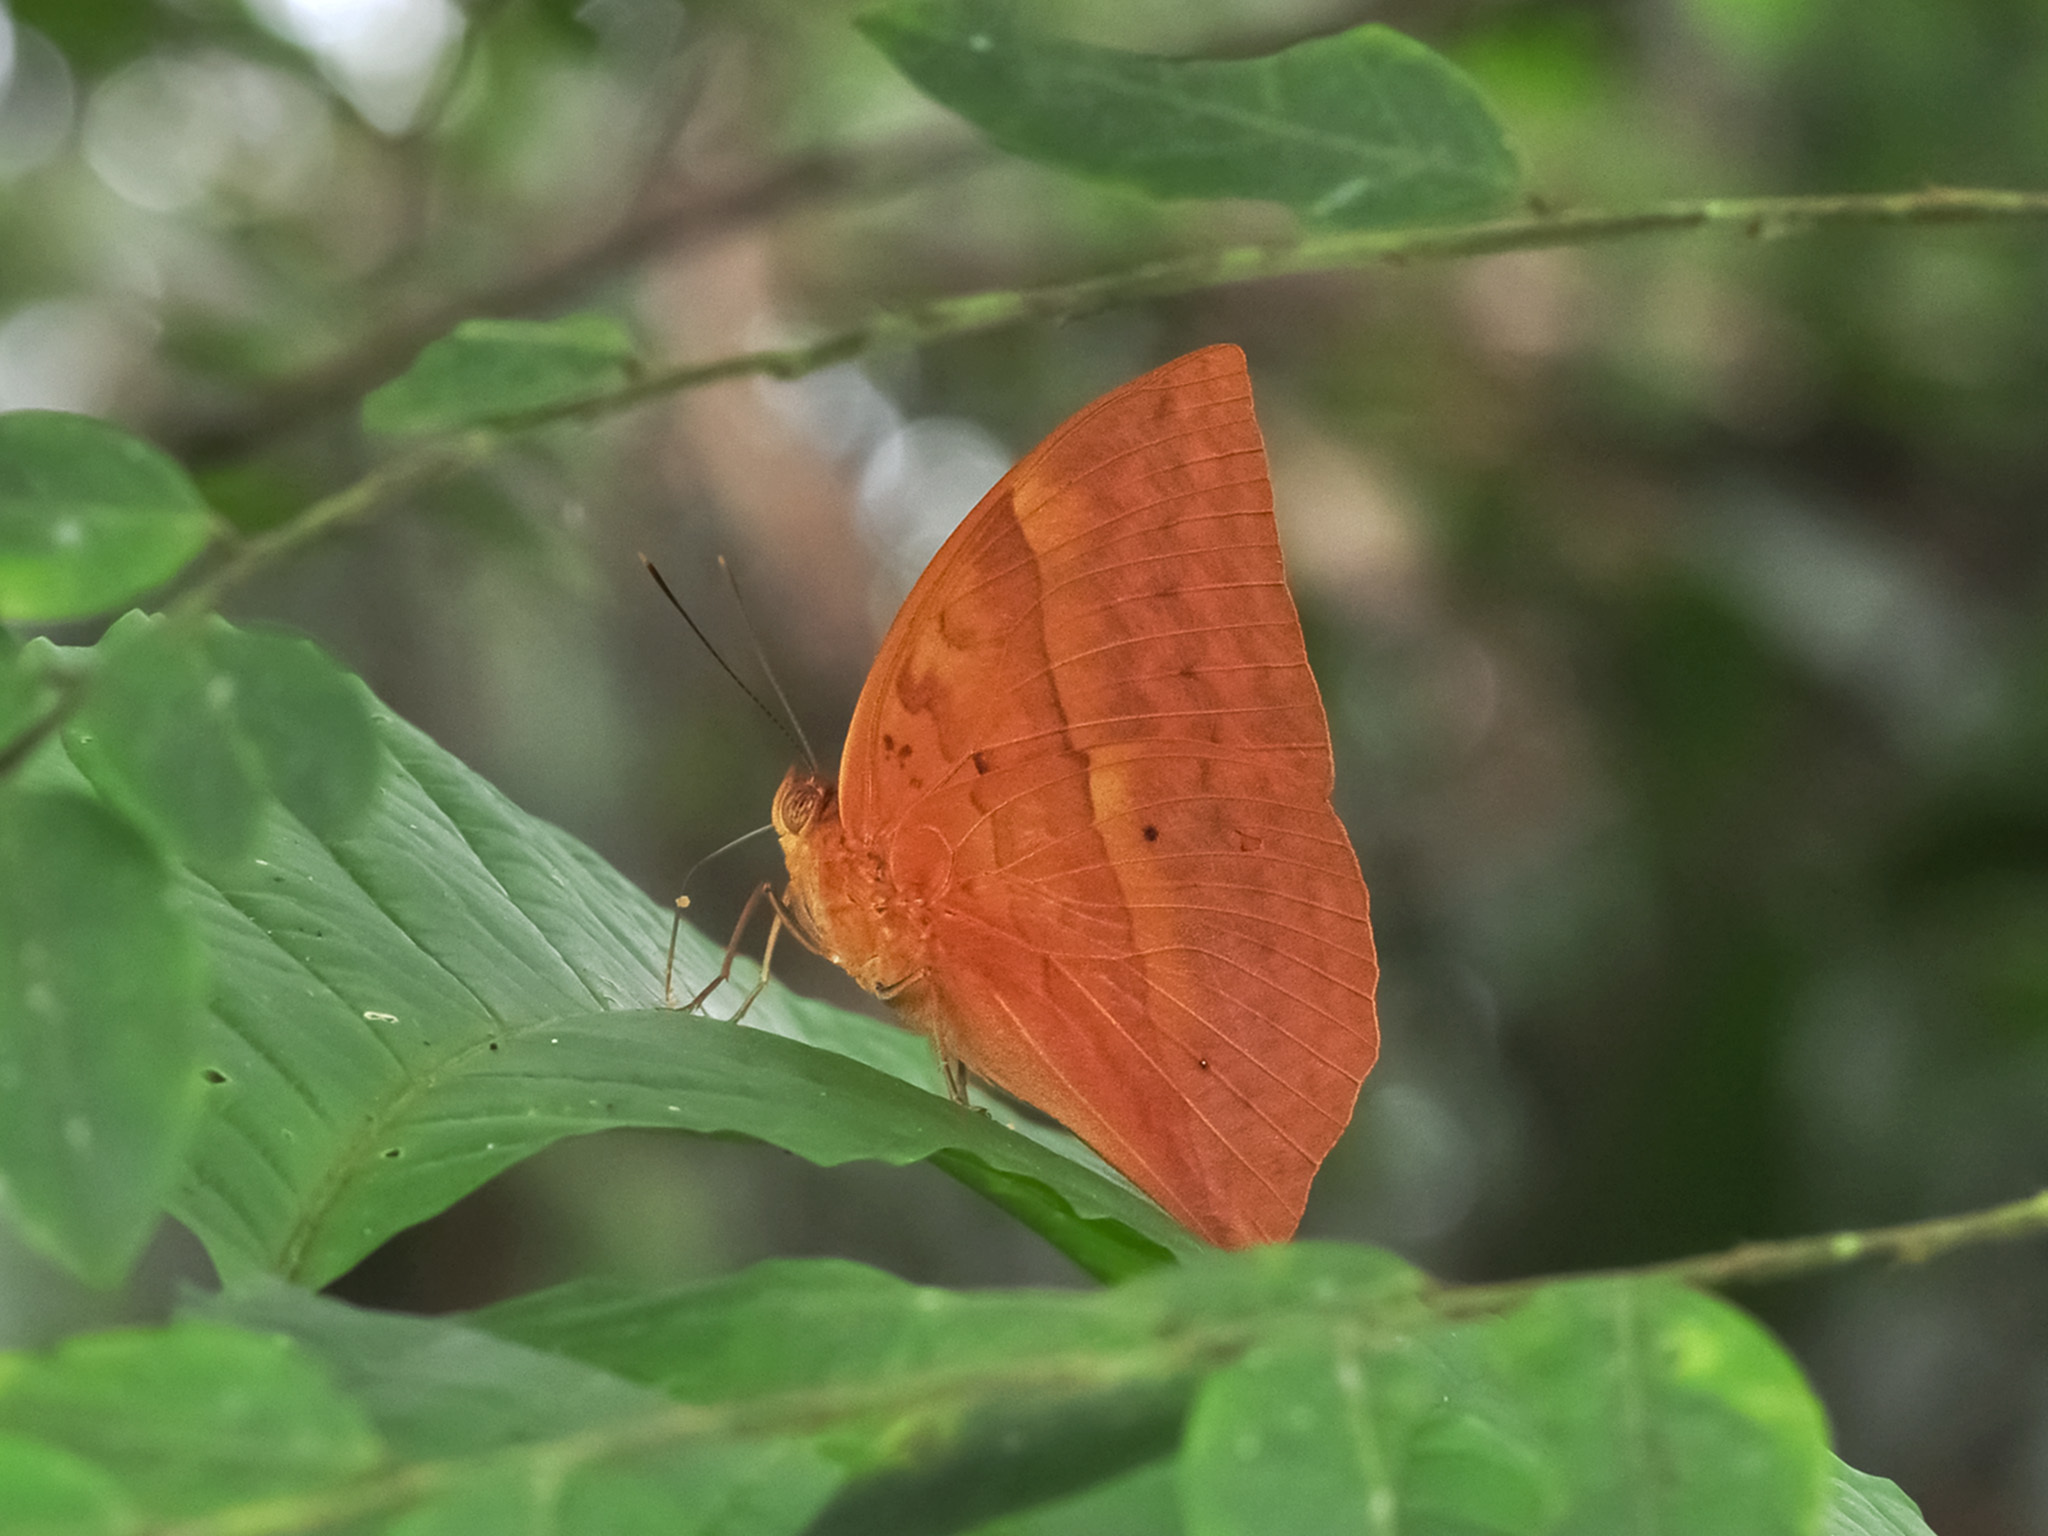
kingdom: Animalia
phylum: Arthropoda
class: Insecta
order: Lepidoptera
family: Nymphalidae
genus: Enispe
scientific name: Enispe
